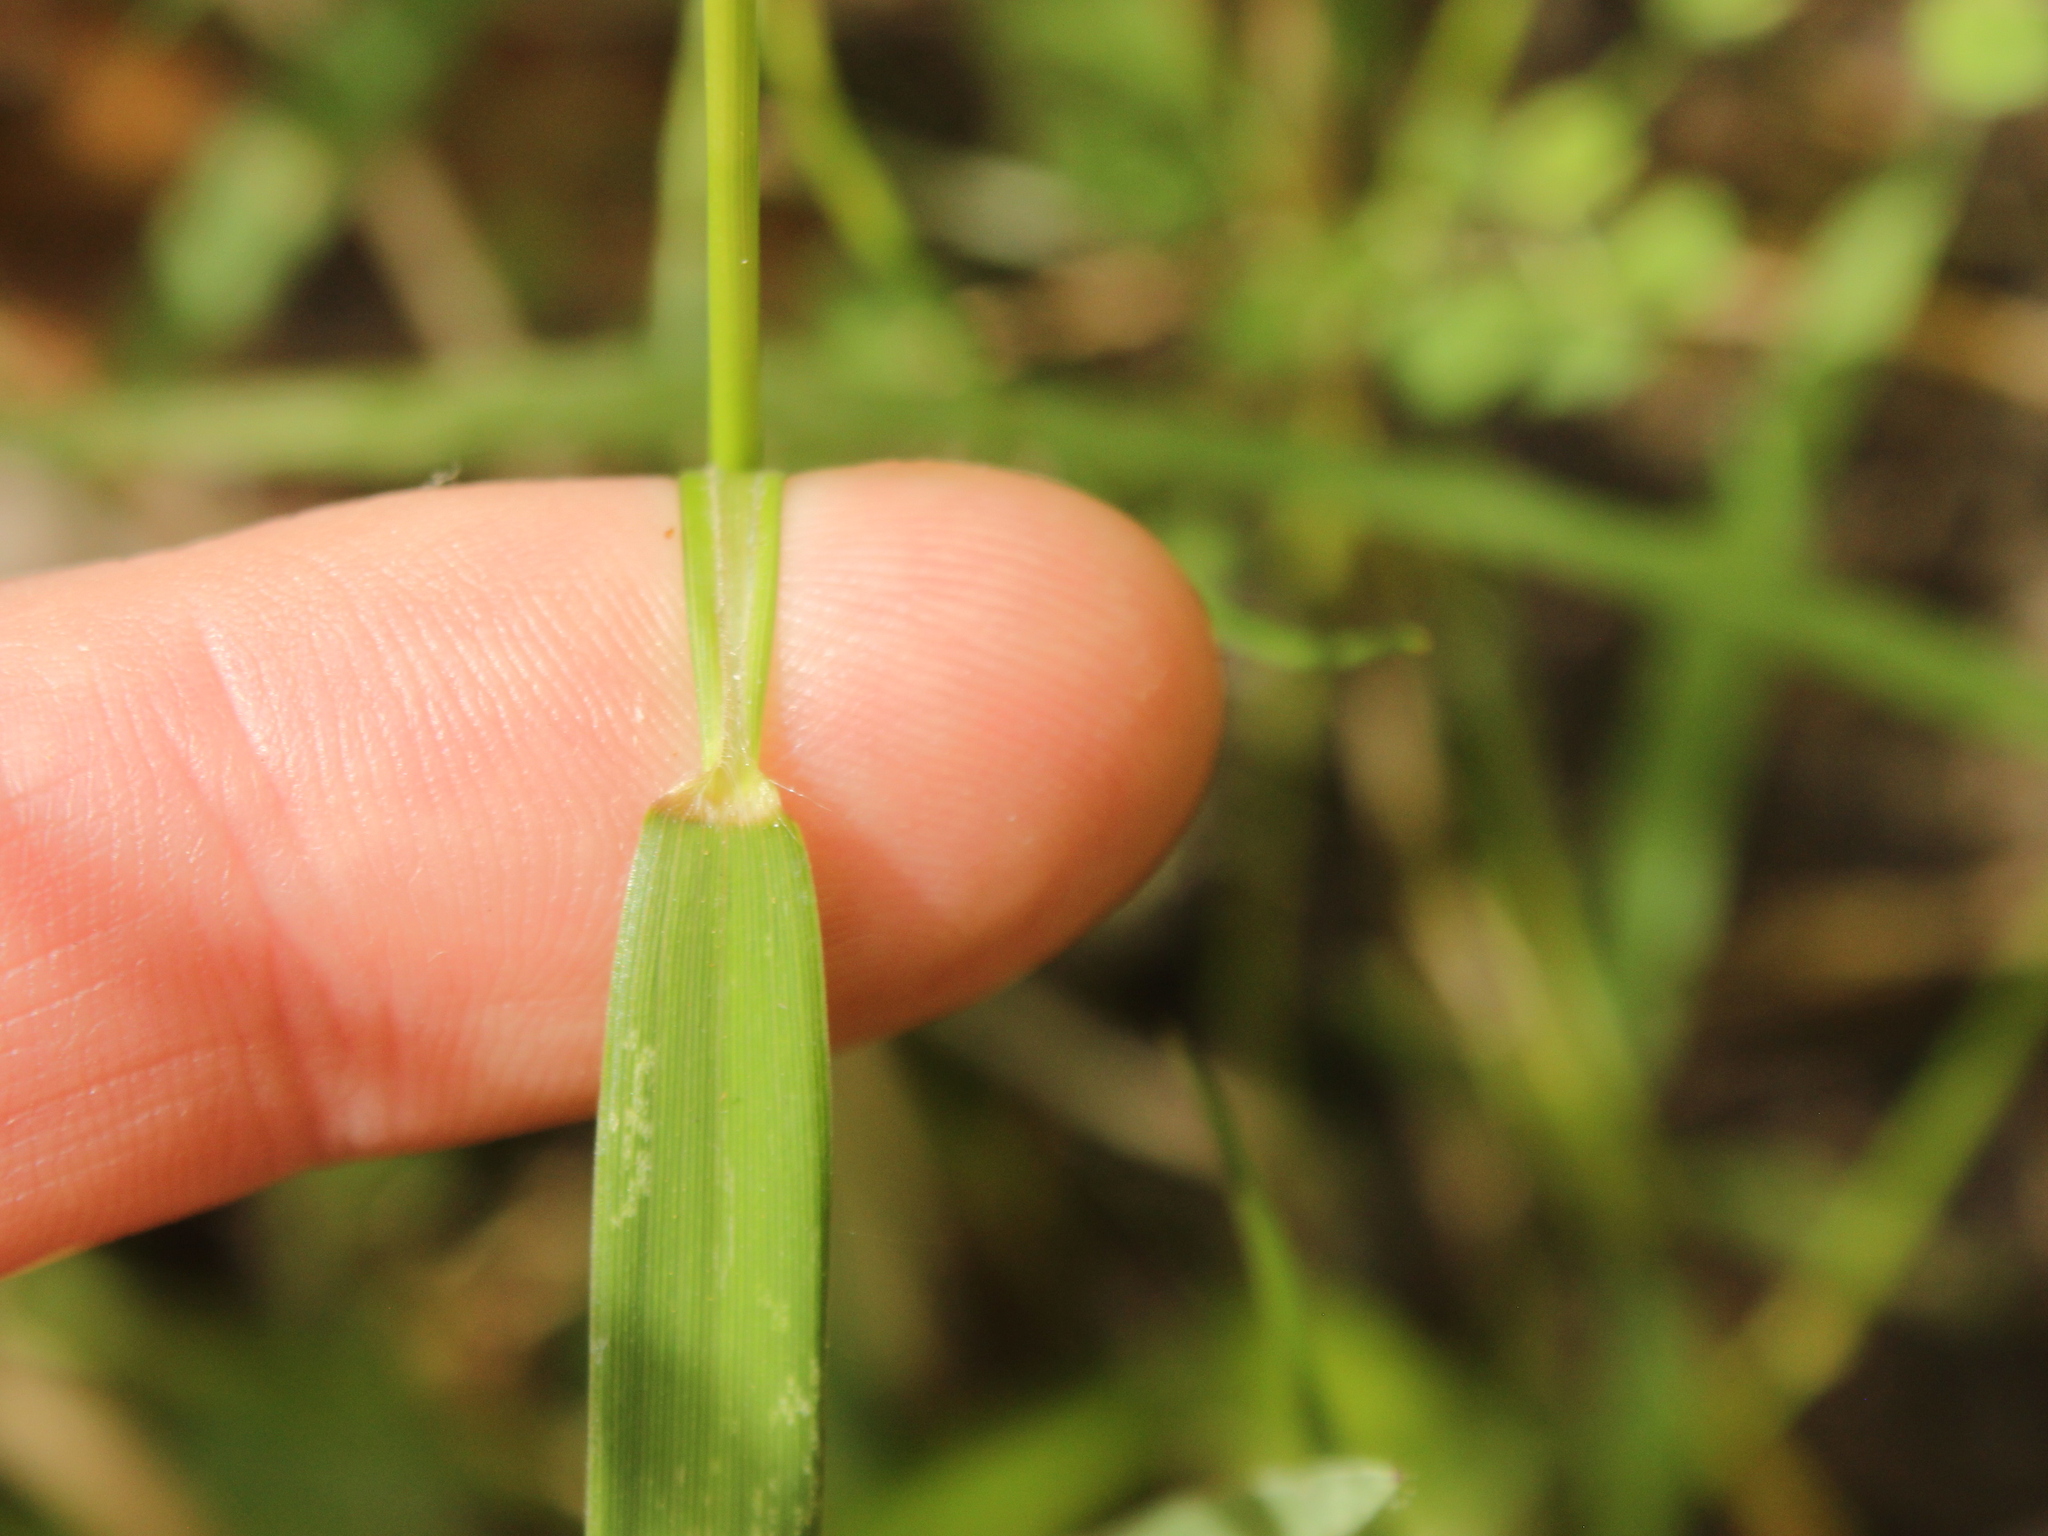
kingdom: Plantae
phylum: Tracheophyta
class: Liliopsida
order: Poales
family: Poaceae
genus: Isachne
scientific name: Isachne globosa
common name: Swamp millet
